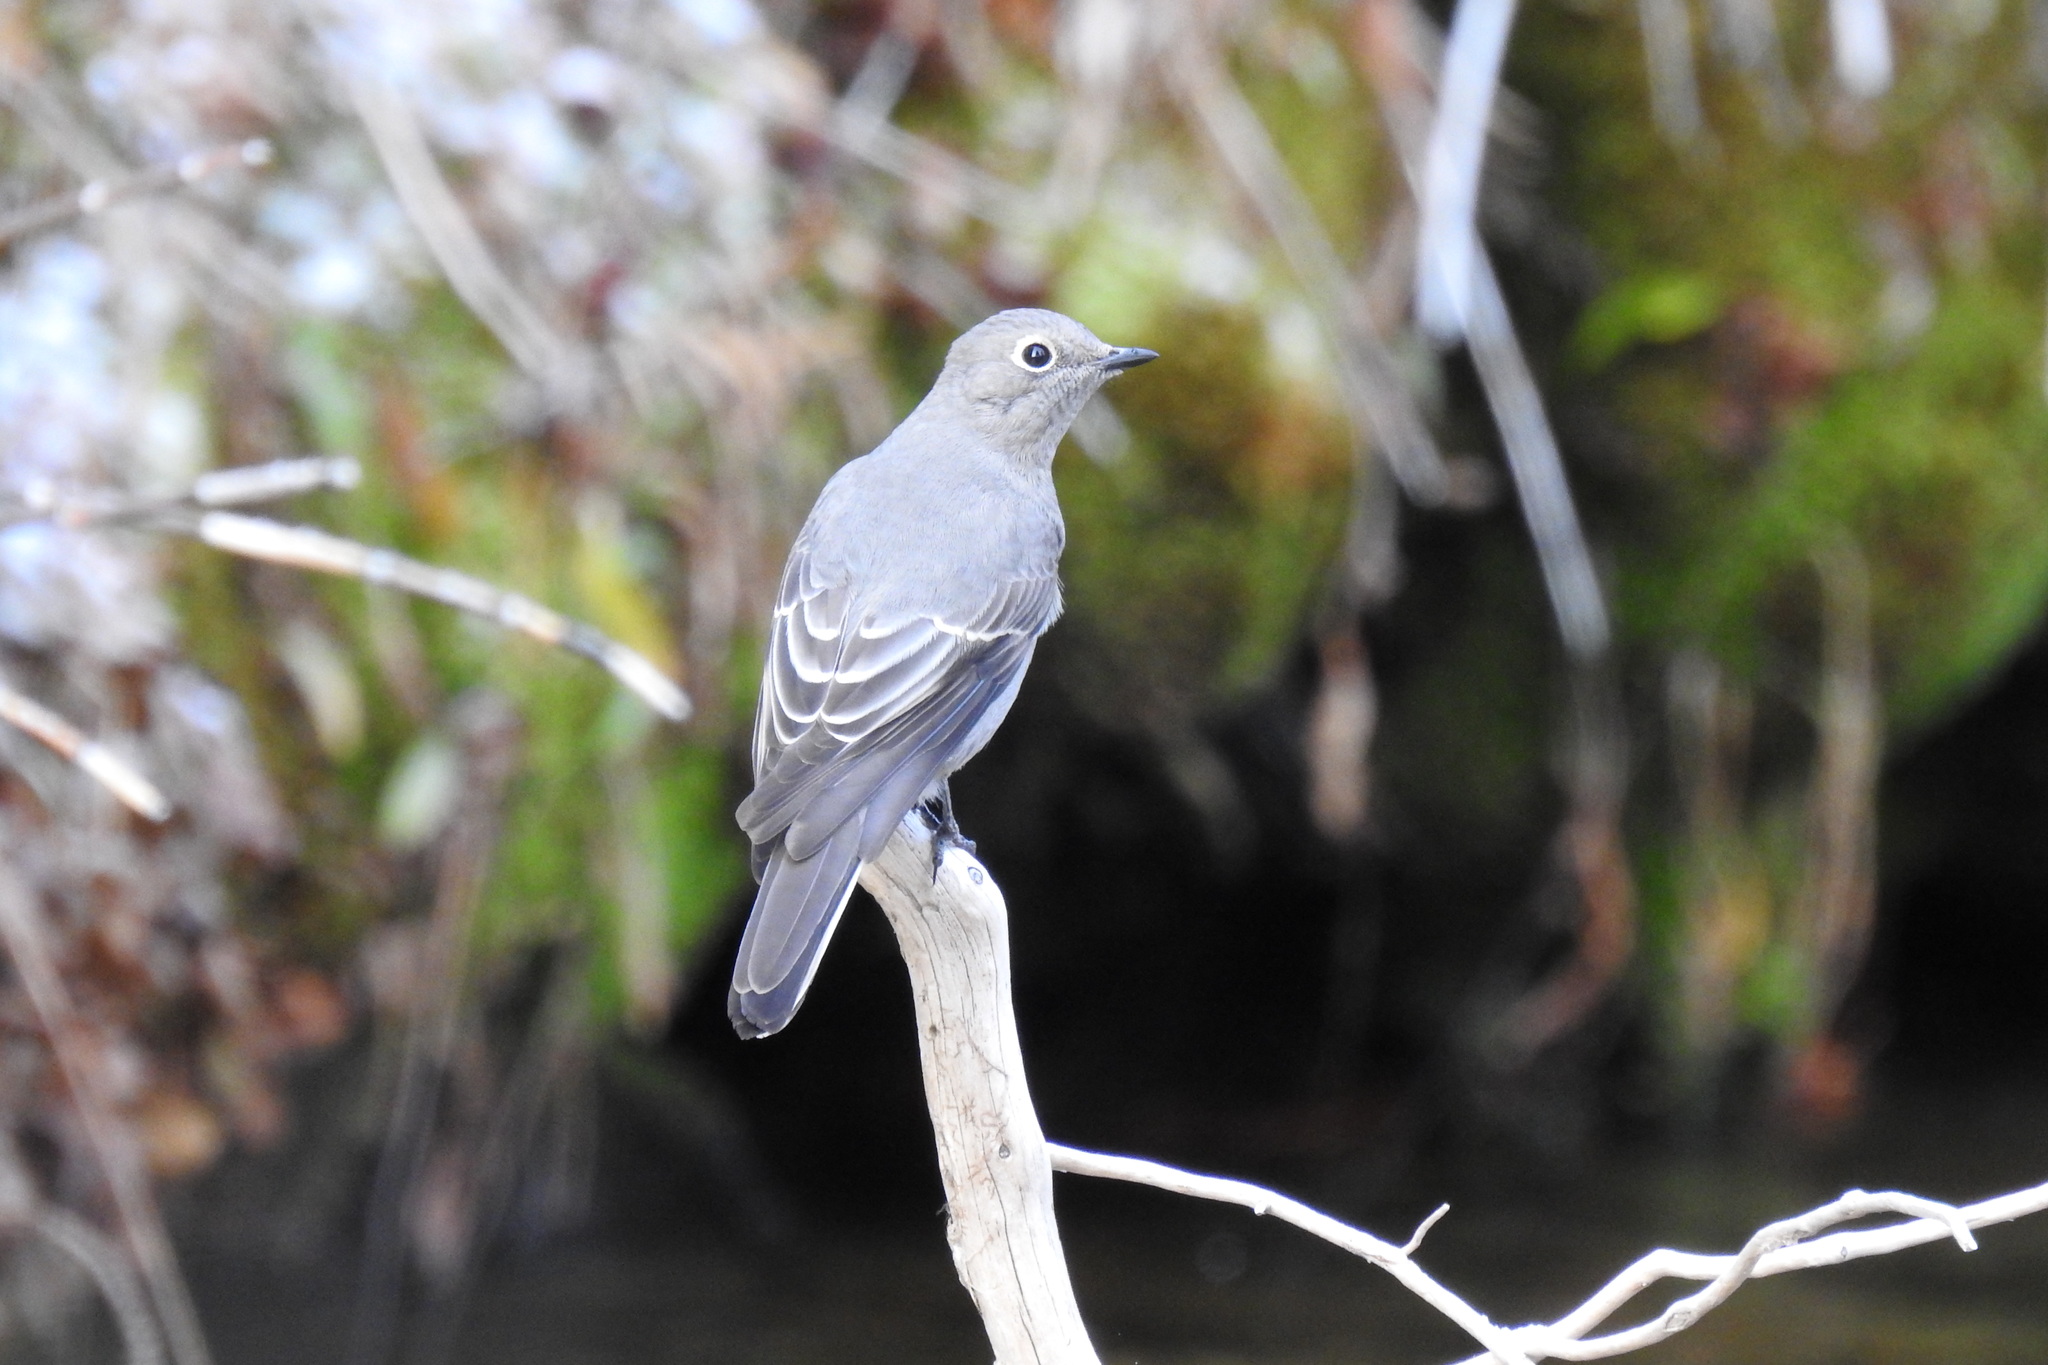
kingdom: Animalia
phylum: Chordata
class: Aves
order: Passeriformes
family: Turdidae
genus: Myadestes
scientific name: Myadestes townsendi
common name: Townsend's solitaire
